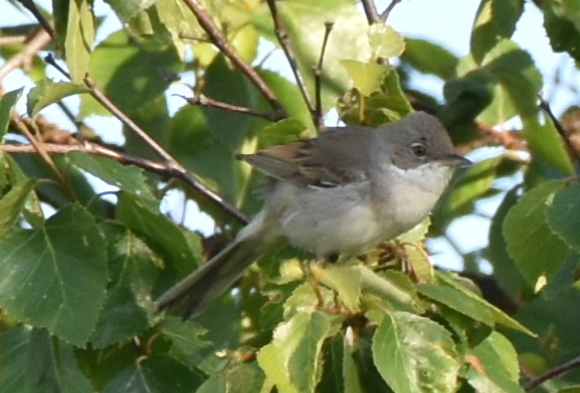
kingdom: Animalia
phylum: Chordata
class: Aves
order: Passeriformes
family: Sylviidae
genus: Sylvia
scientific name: Sylvia communis
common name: Common whitethroat
